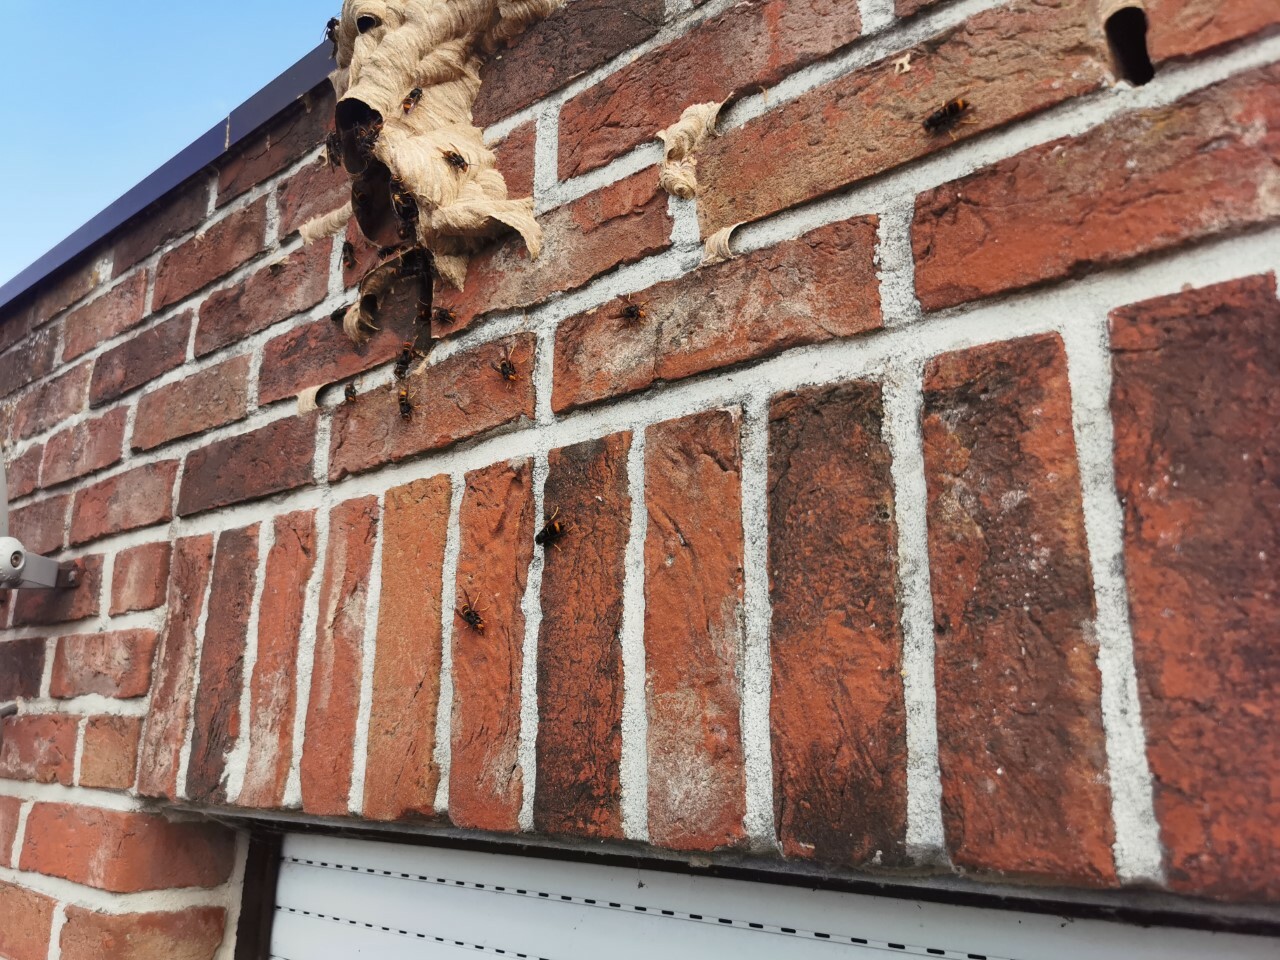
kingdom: Animalia
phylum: Arthropoda
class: Insecta
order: Hymenoptera
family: Vespidae
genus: Vespa
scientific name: Vespa velutina
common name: Asian hornet
